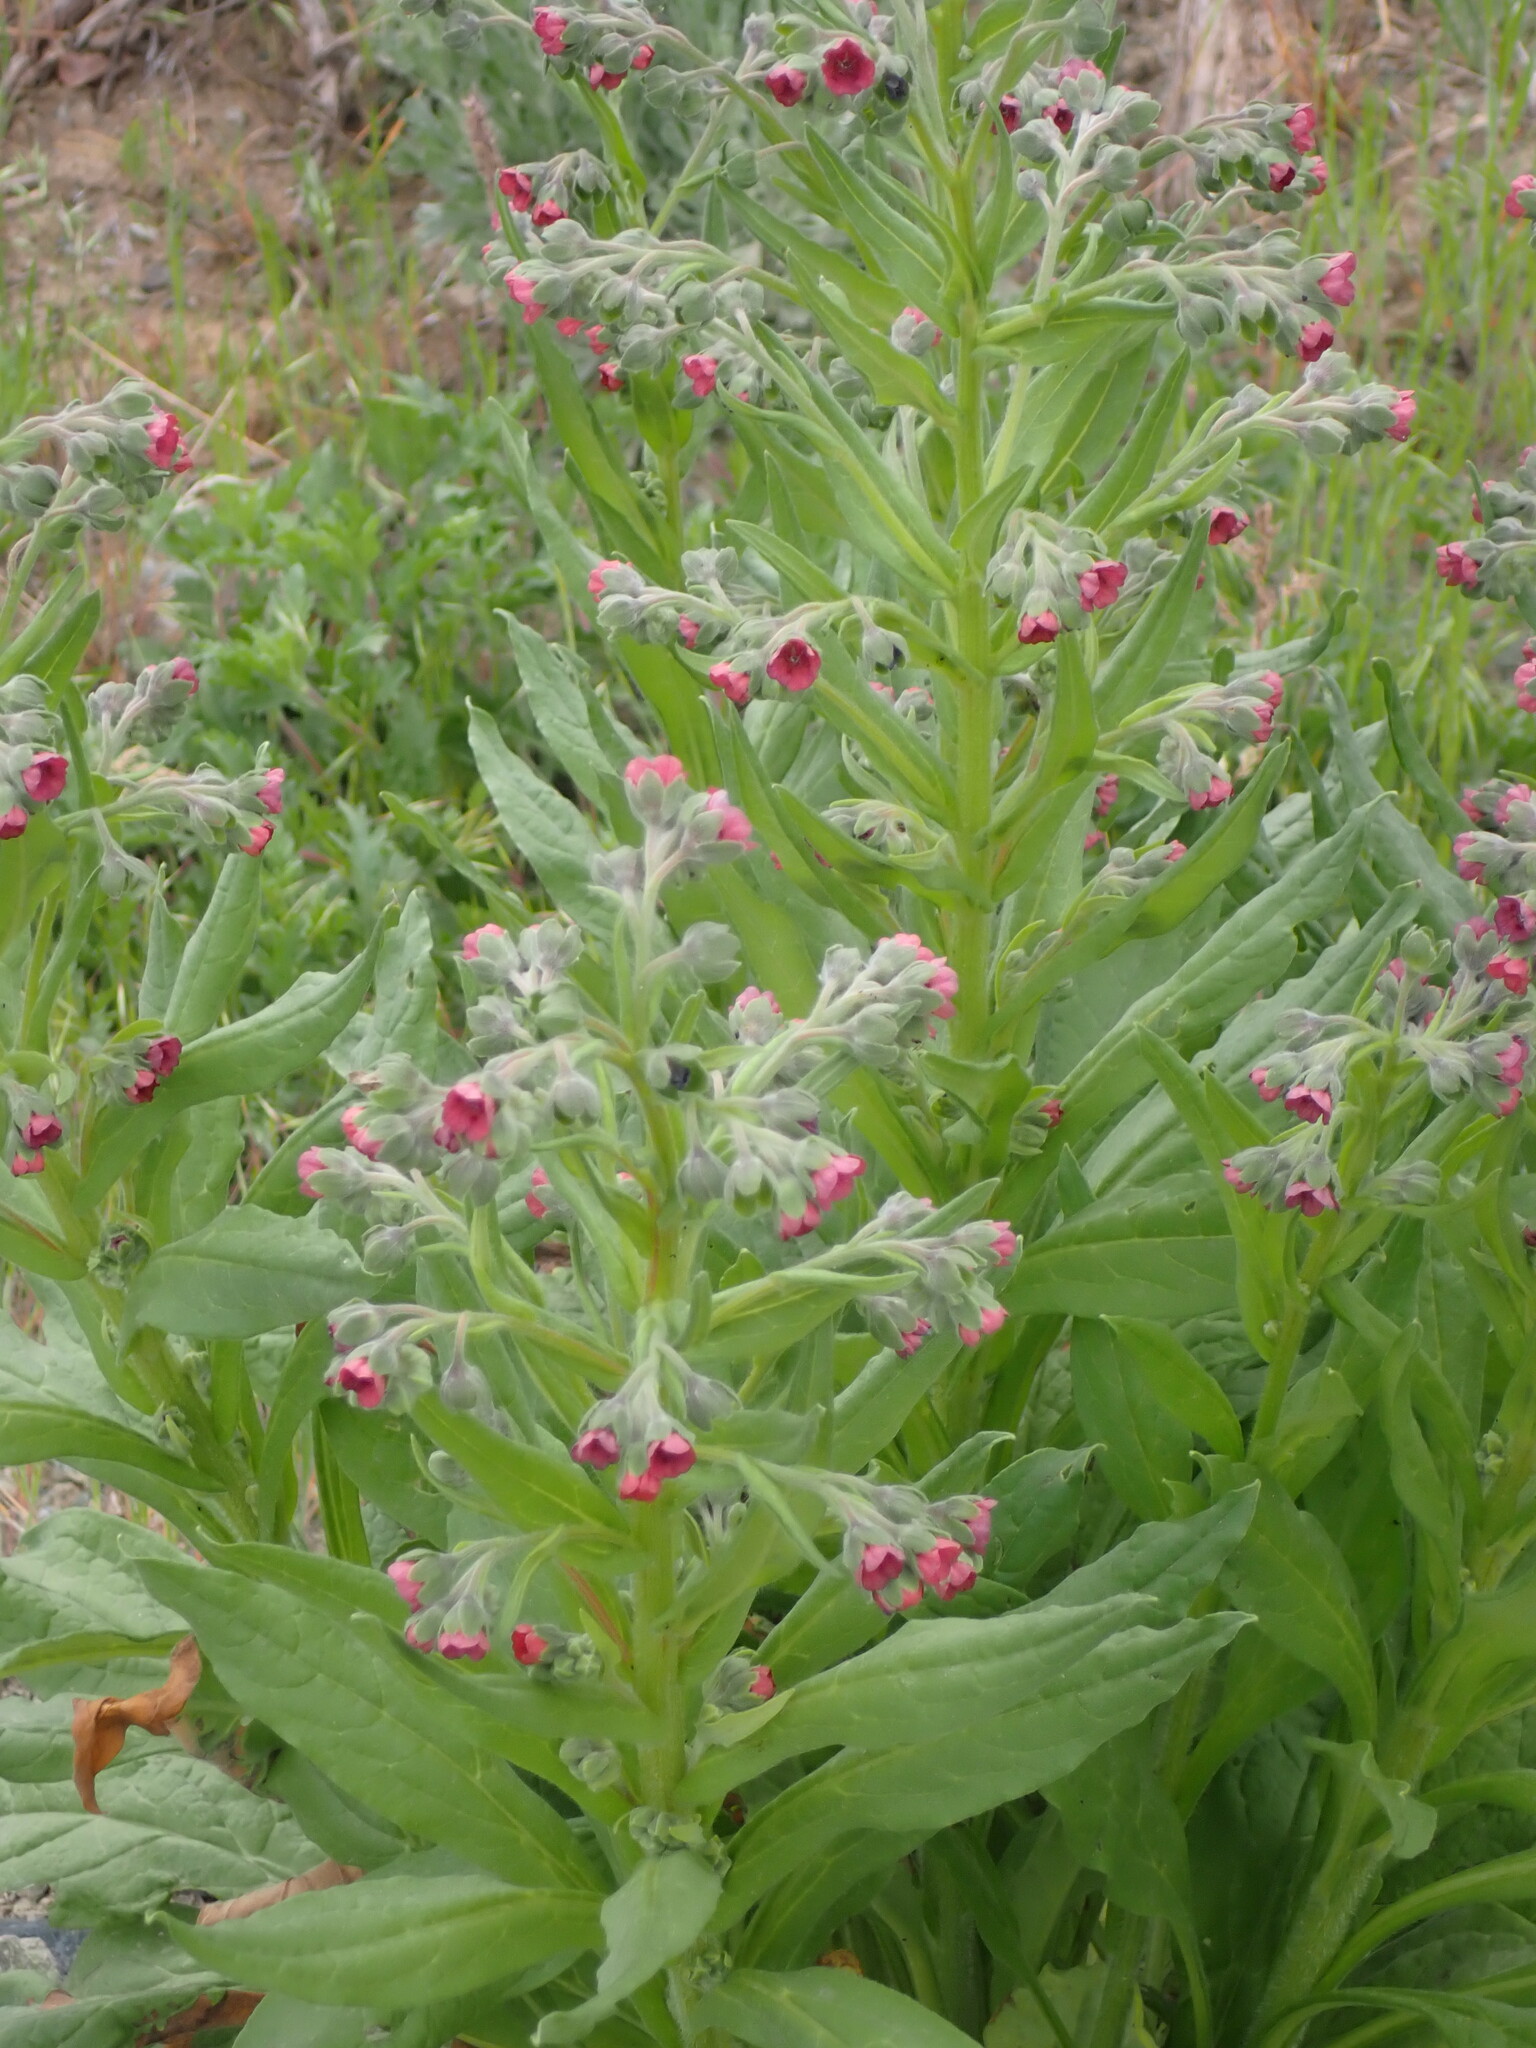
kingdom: Plantae
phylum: Tracheophyta
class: Magnoliopsida
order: Boraginales
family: Boraginaceae
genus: Cynoglossum
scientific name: Cynoglossum officinale
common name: Hound's-tongue
